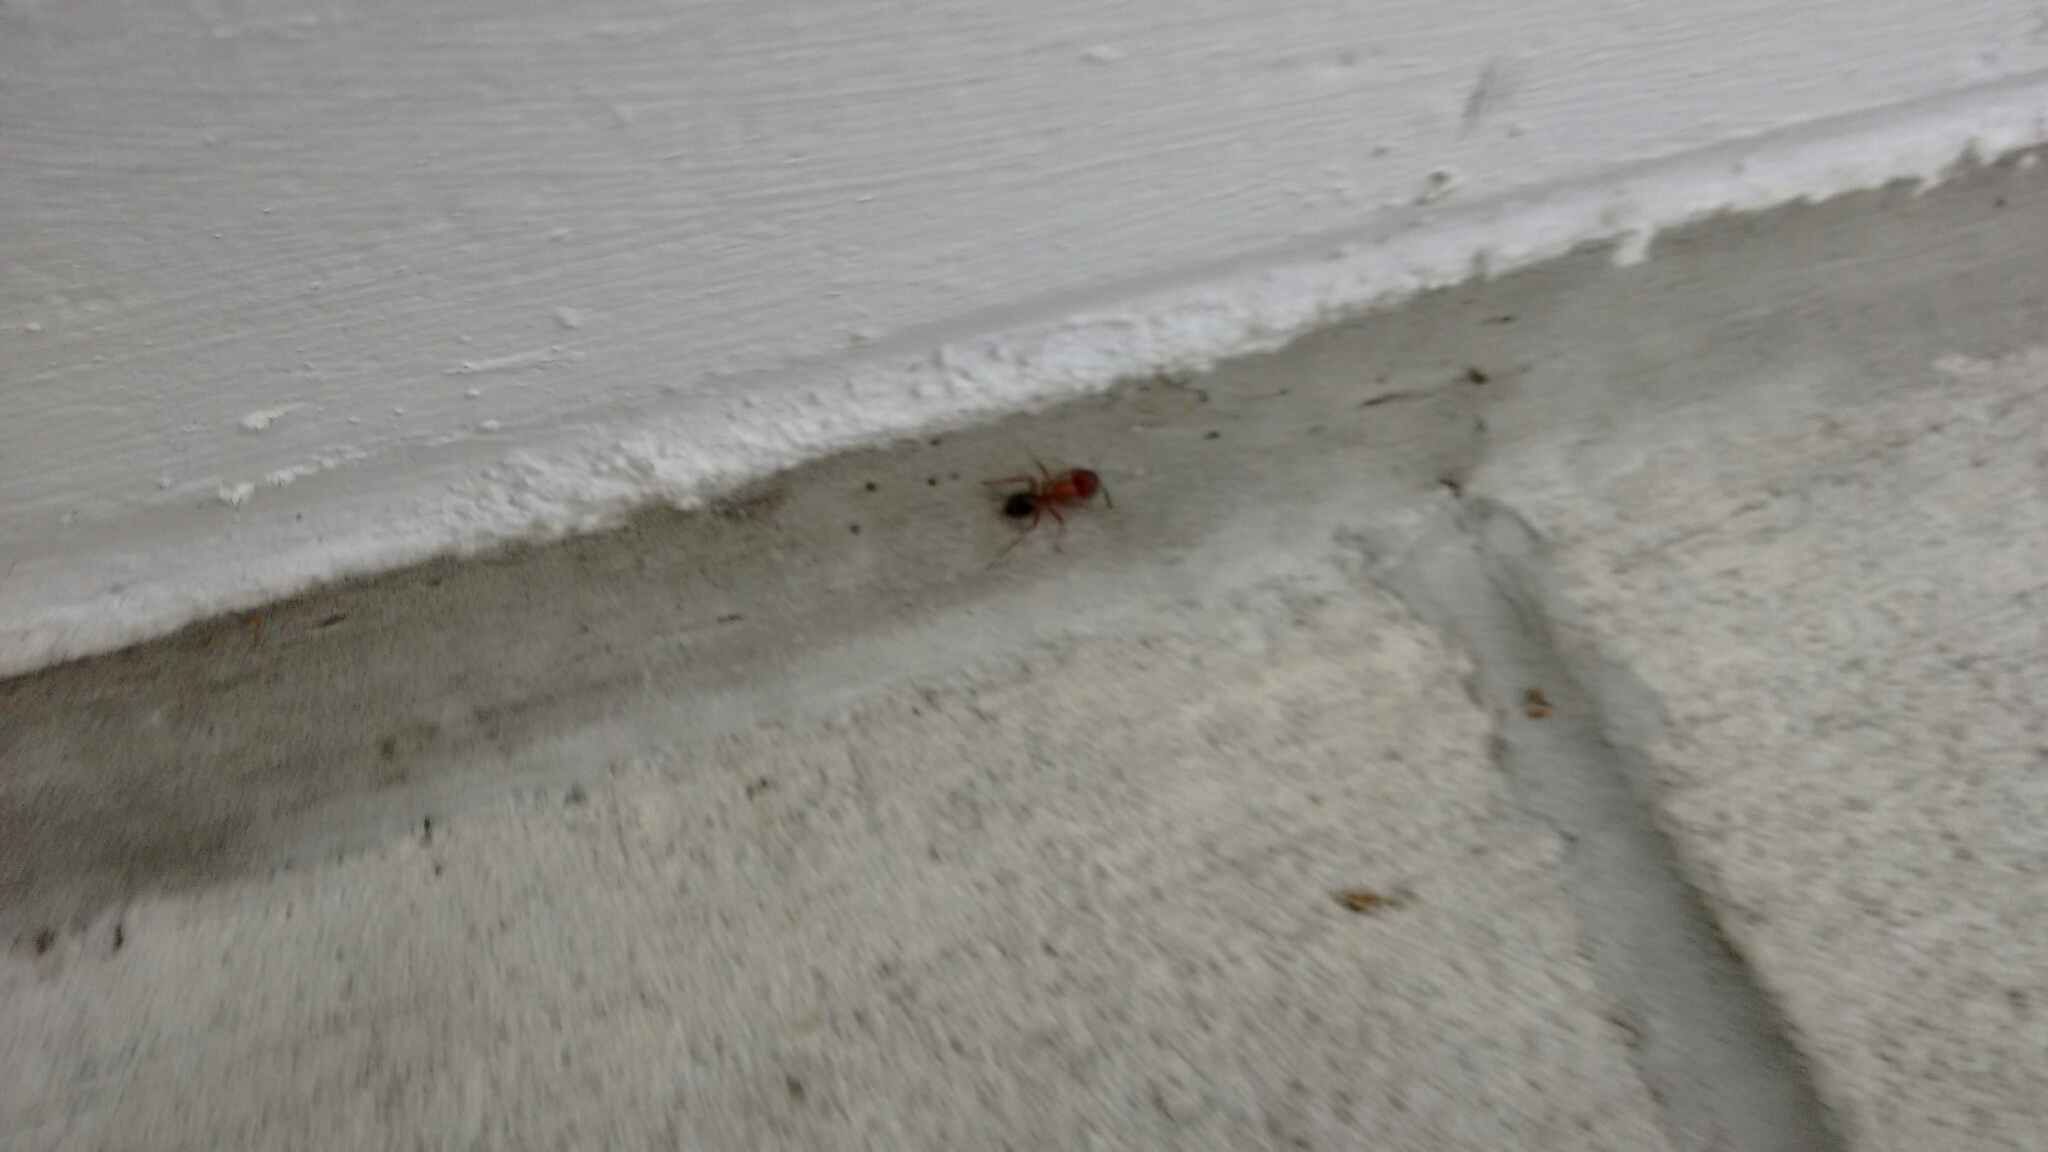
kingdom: Animalia
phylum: Arthropoda
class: Insecta
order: Hymenoptera
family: Formicidae
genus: Camponotus
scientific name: Camponotus floridanus
